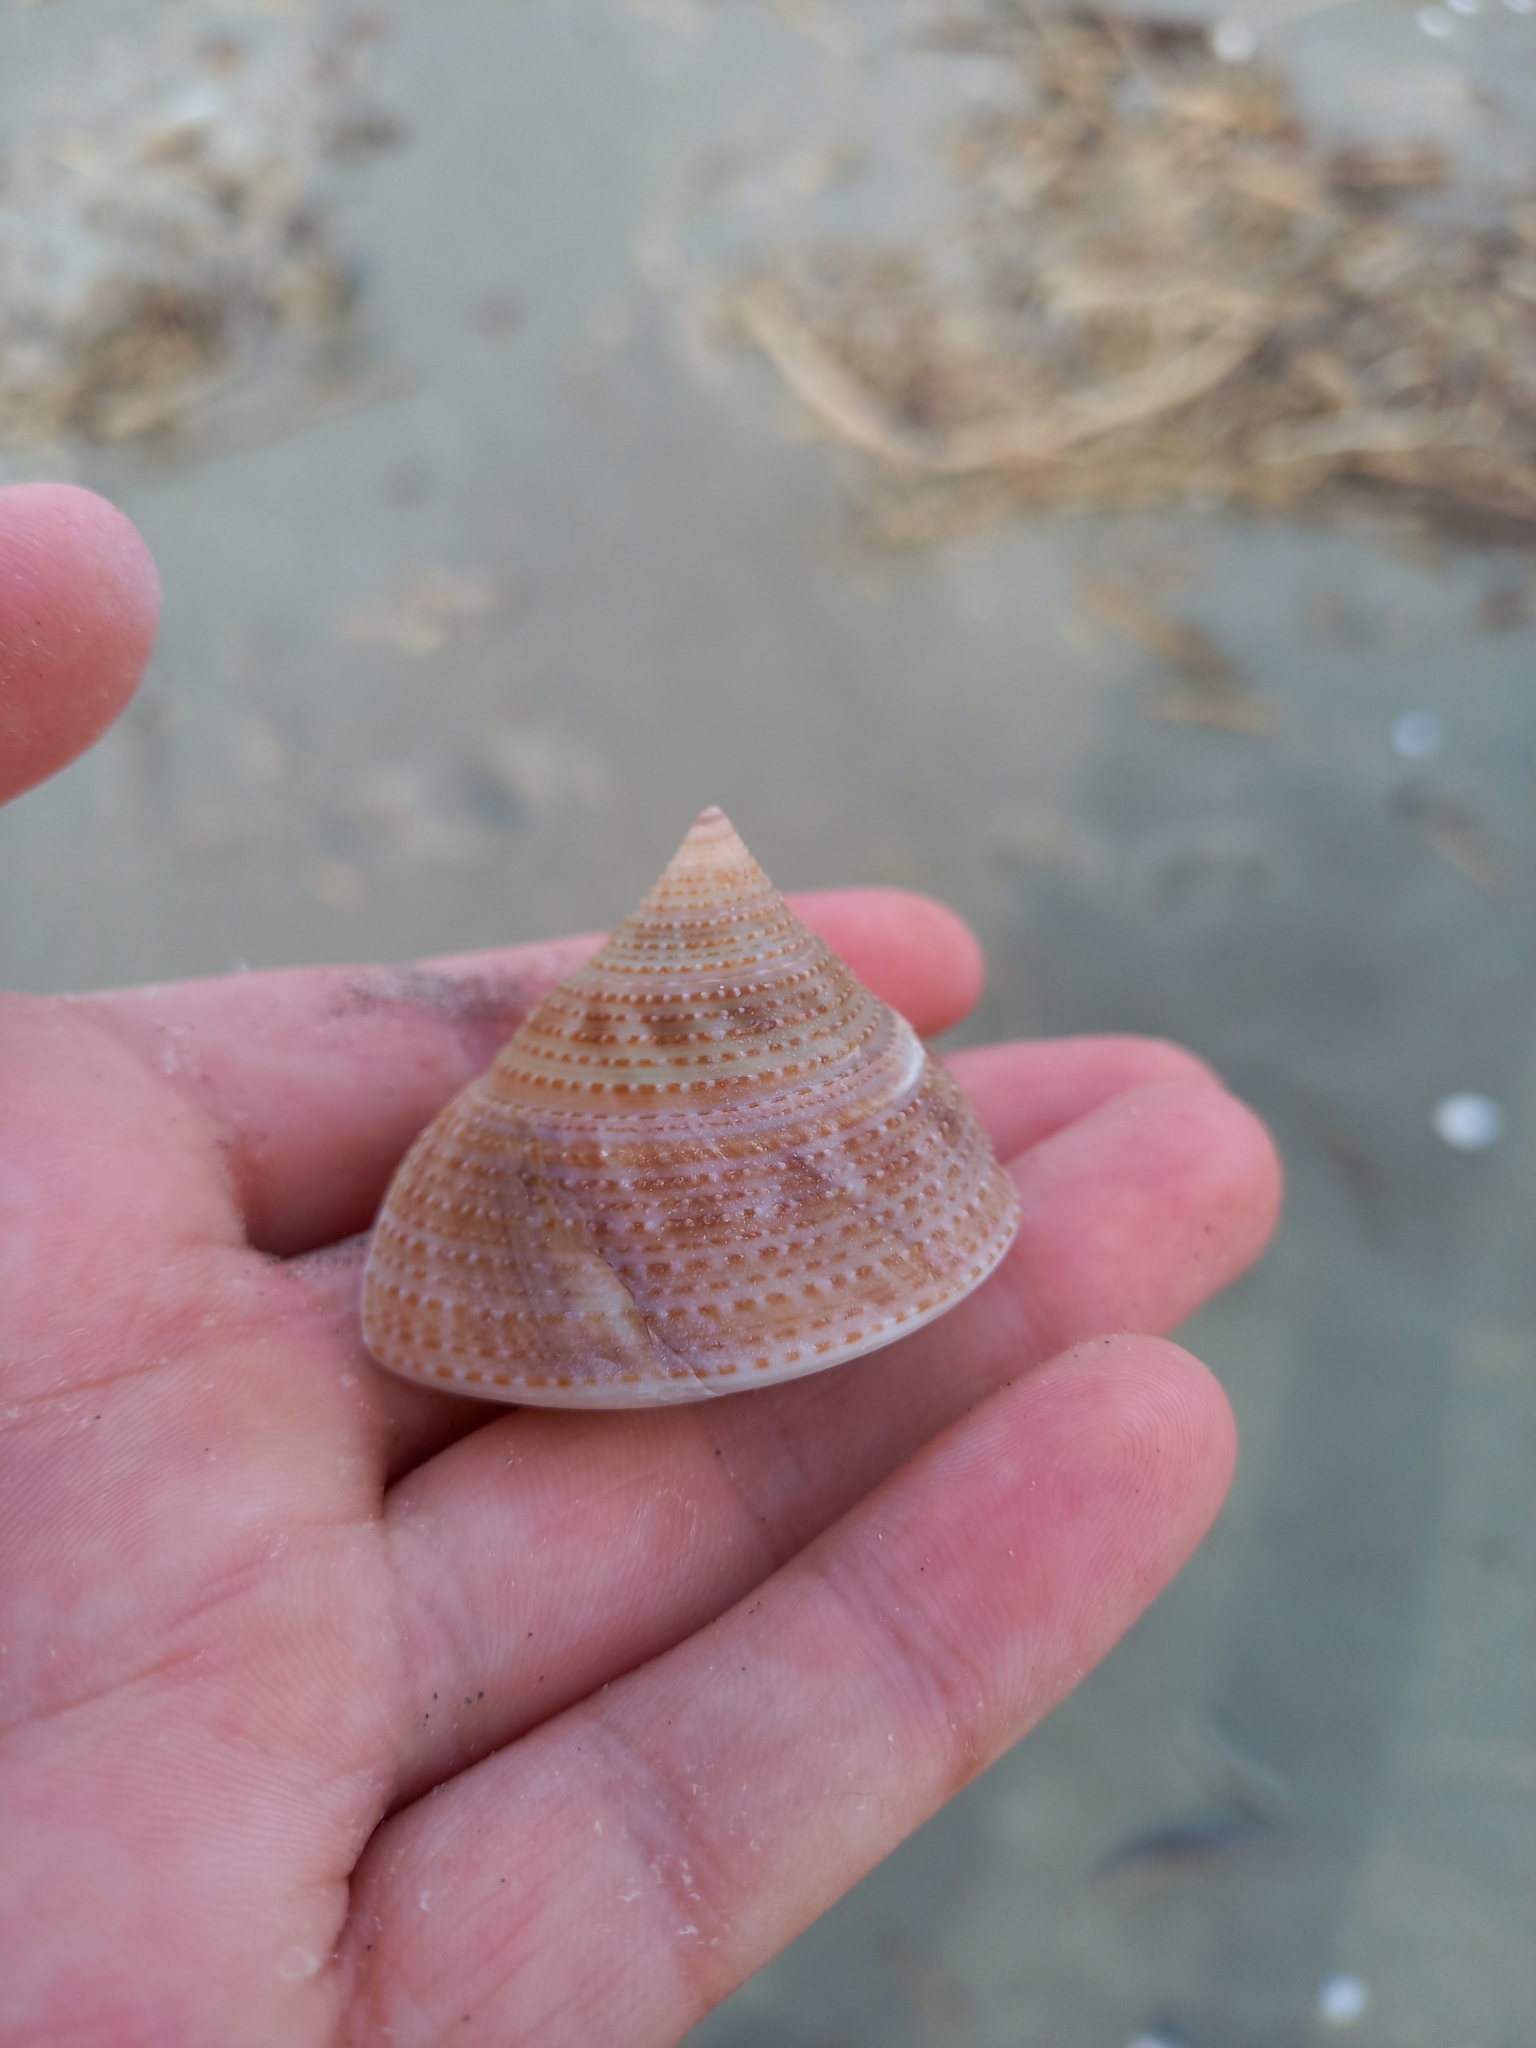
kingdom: Animalia
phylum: Mollusca
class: Gastropoda
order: Trochida
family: Calliostomatidae
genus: Maurea
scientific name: Maurea selecta
